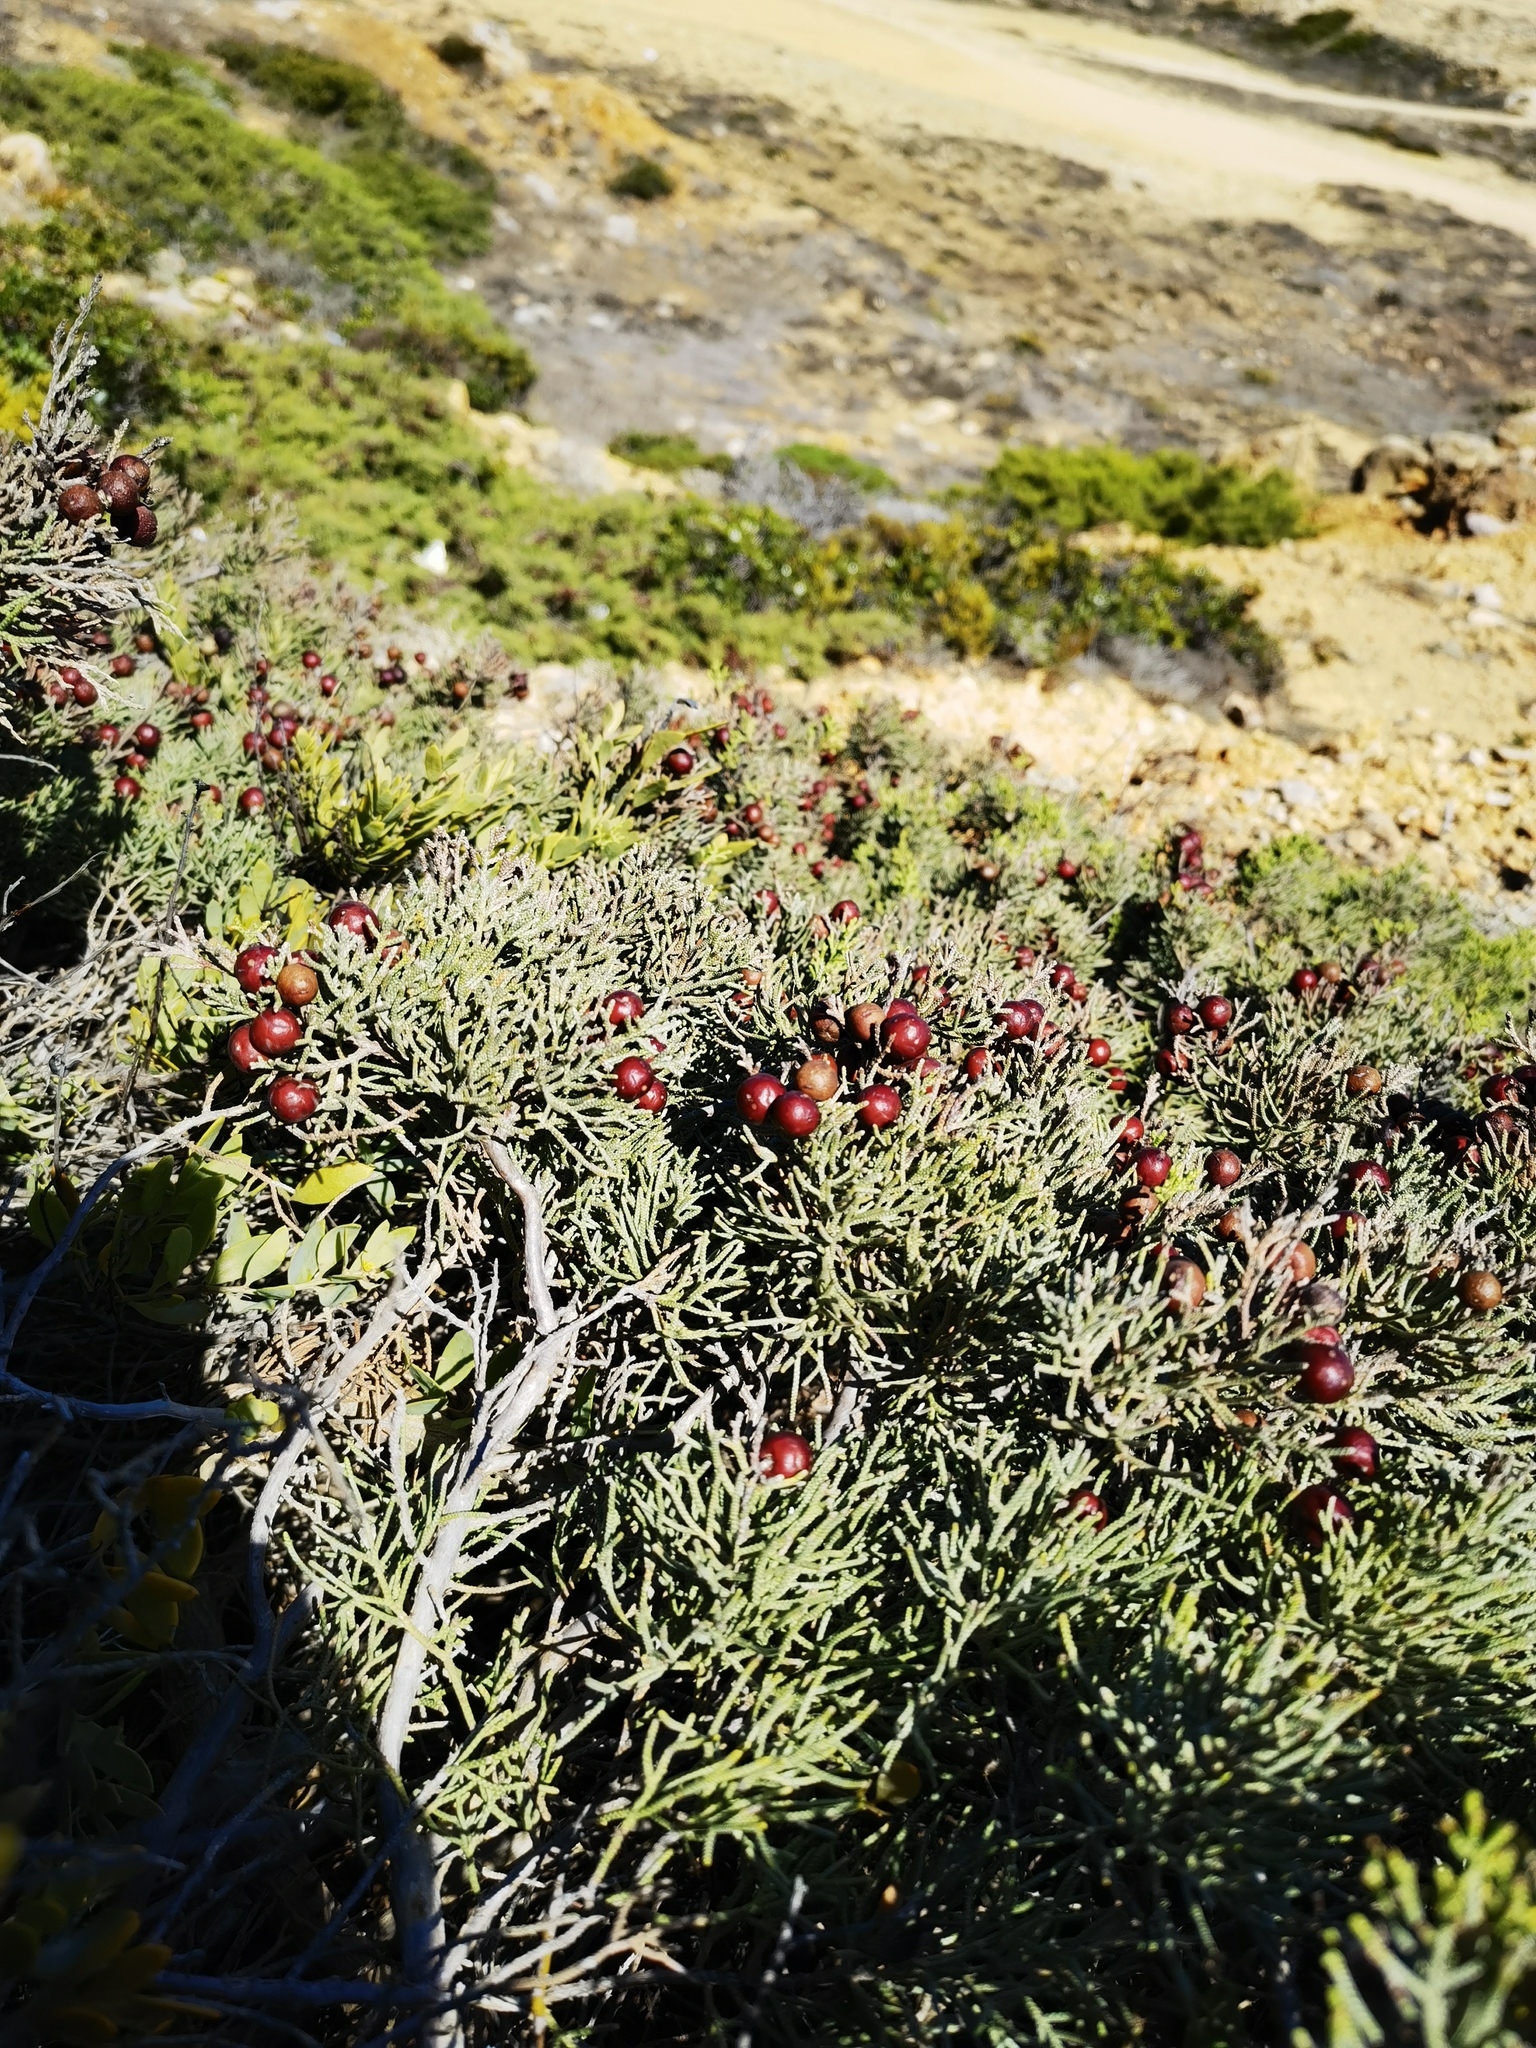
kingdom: Plantae
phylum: Tracheophyta
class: Pinopsida
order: Pinales
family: Cupressaceae
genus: Juniperus
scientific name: Juniperus phoenicea
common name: Phoenician juniper
